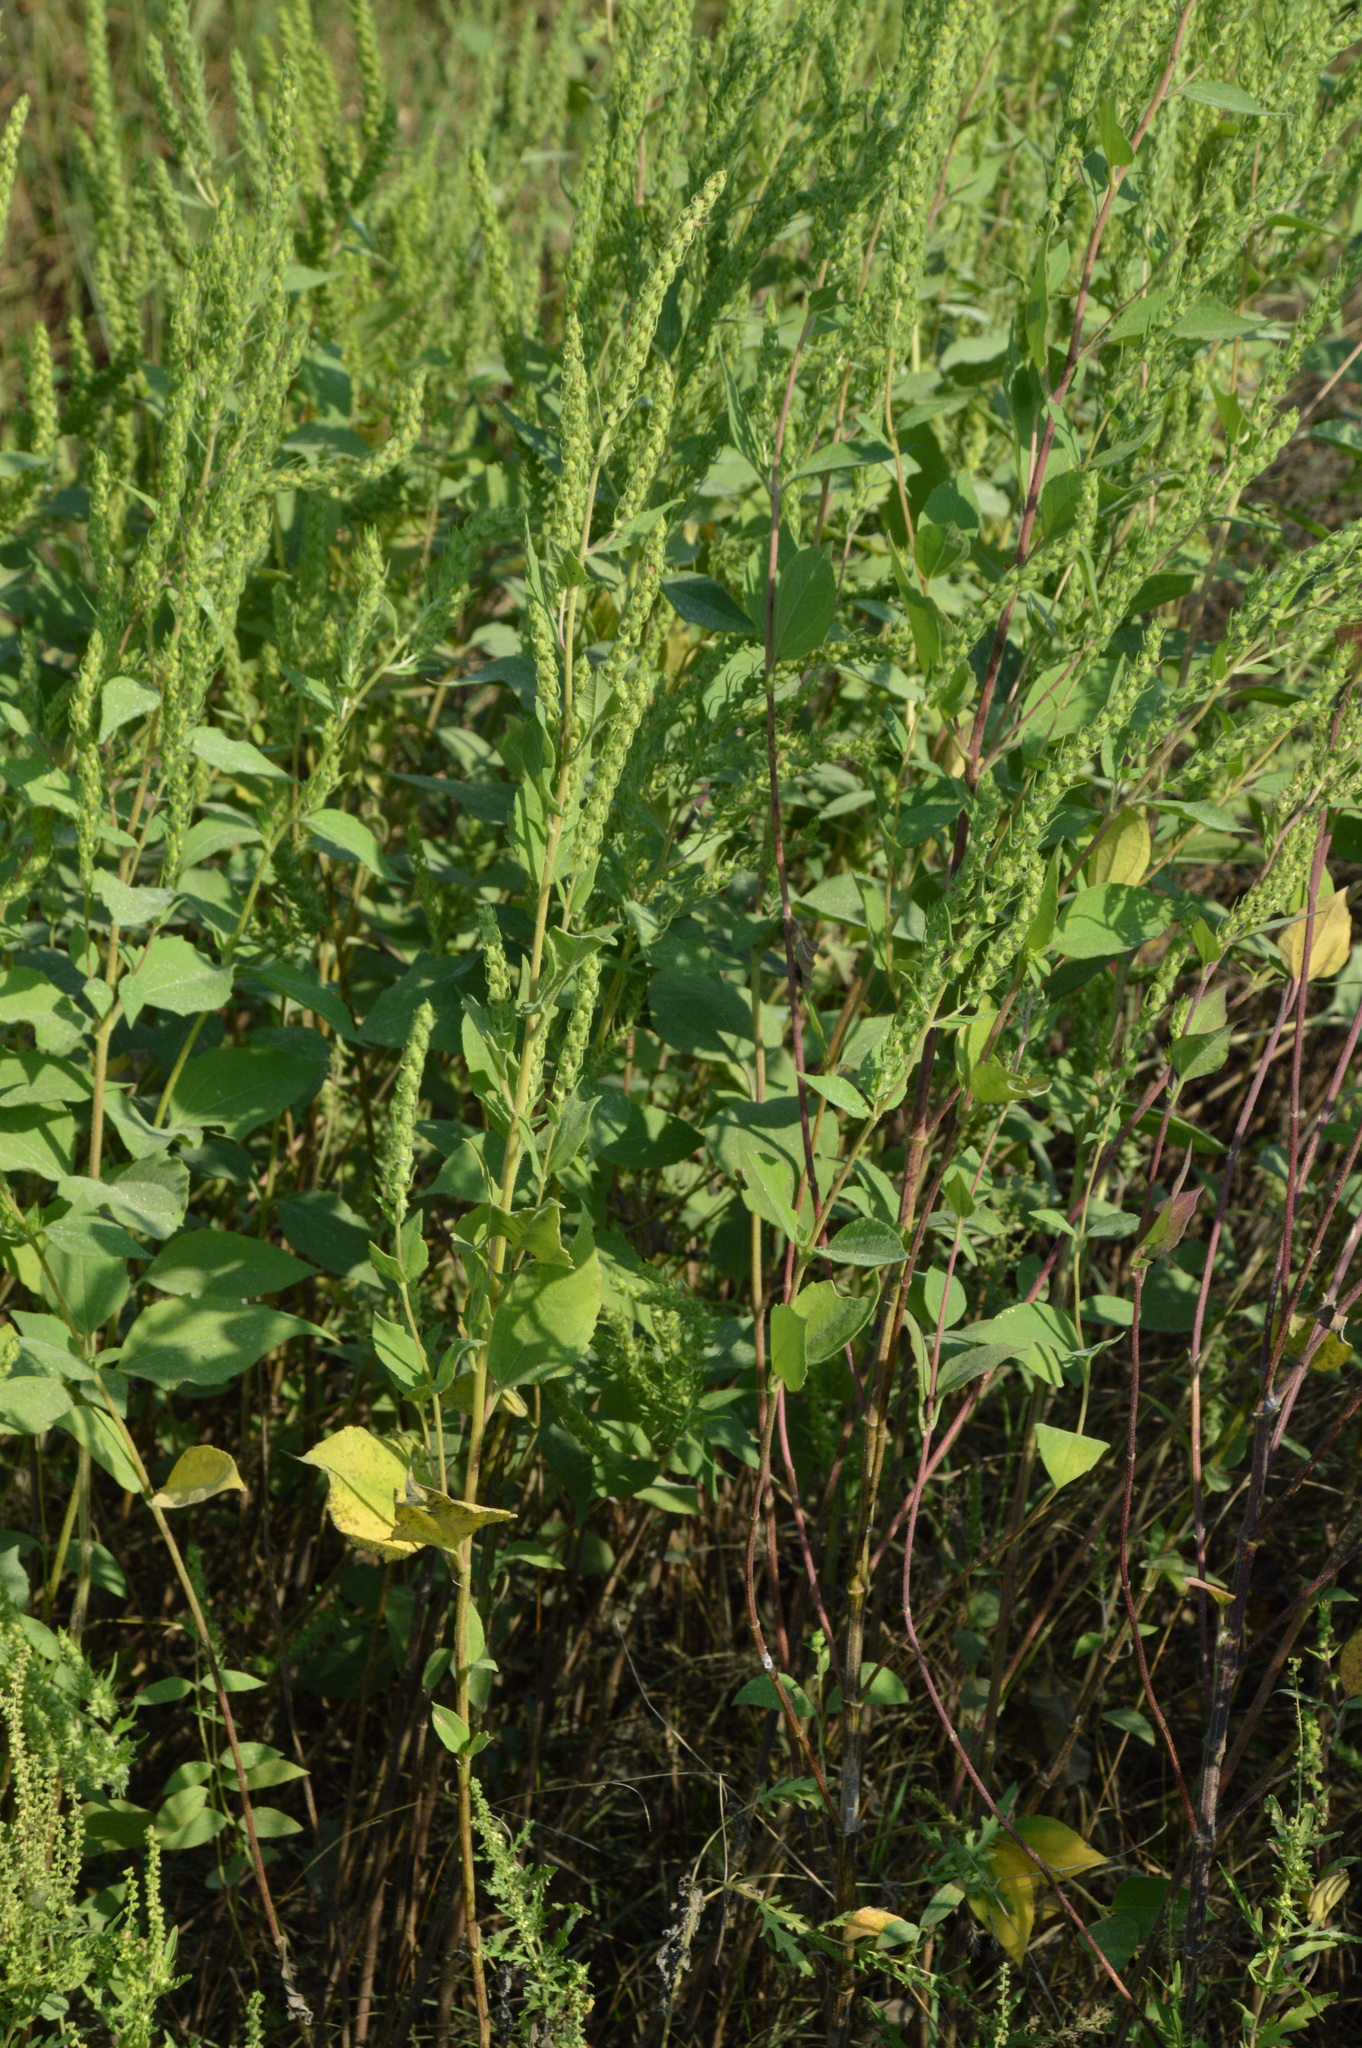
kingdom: Plantae
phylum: Tracheophyta
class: Magnoliopsida
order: Asterales
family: Asteraceae
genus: Iva
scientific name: Iva annua
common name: Marsh-elder
